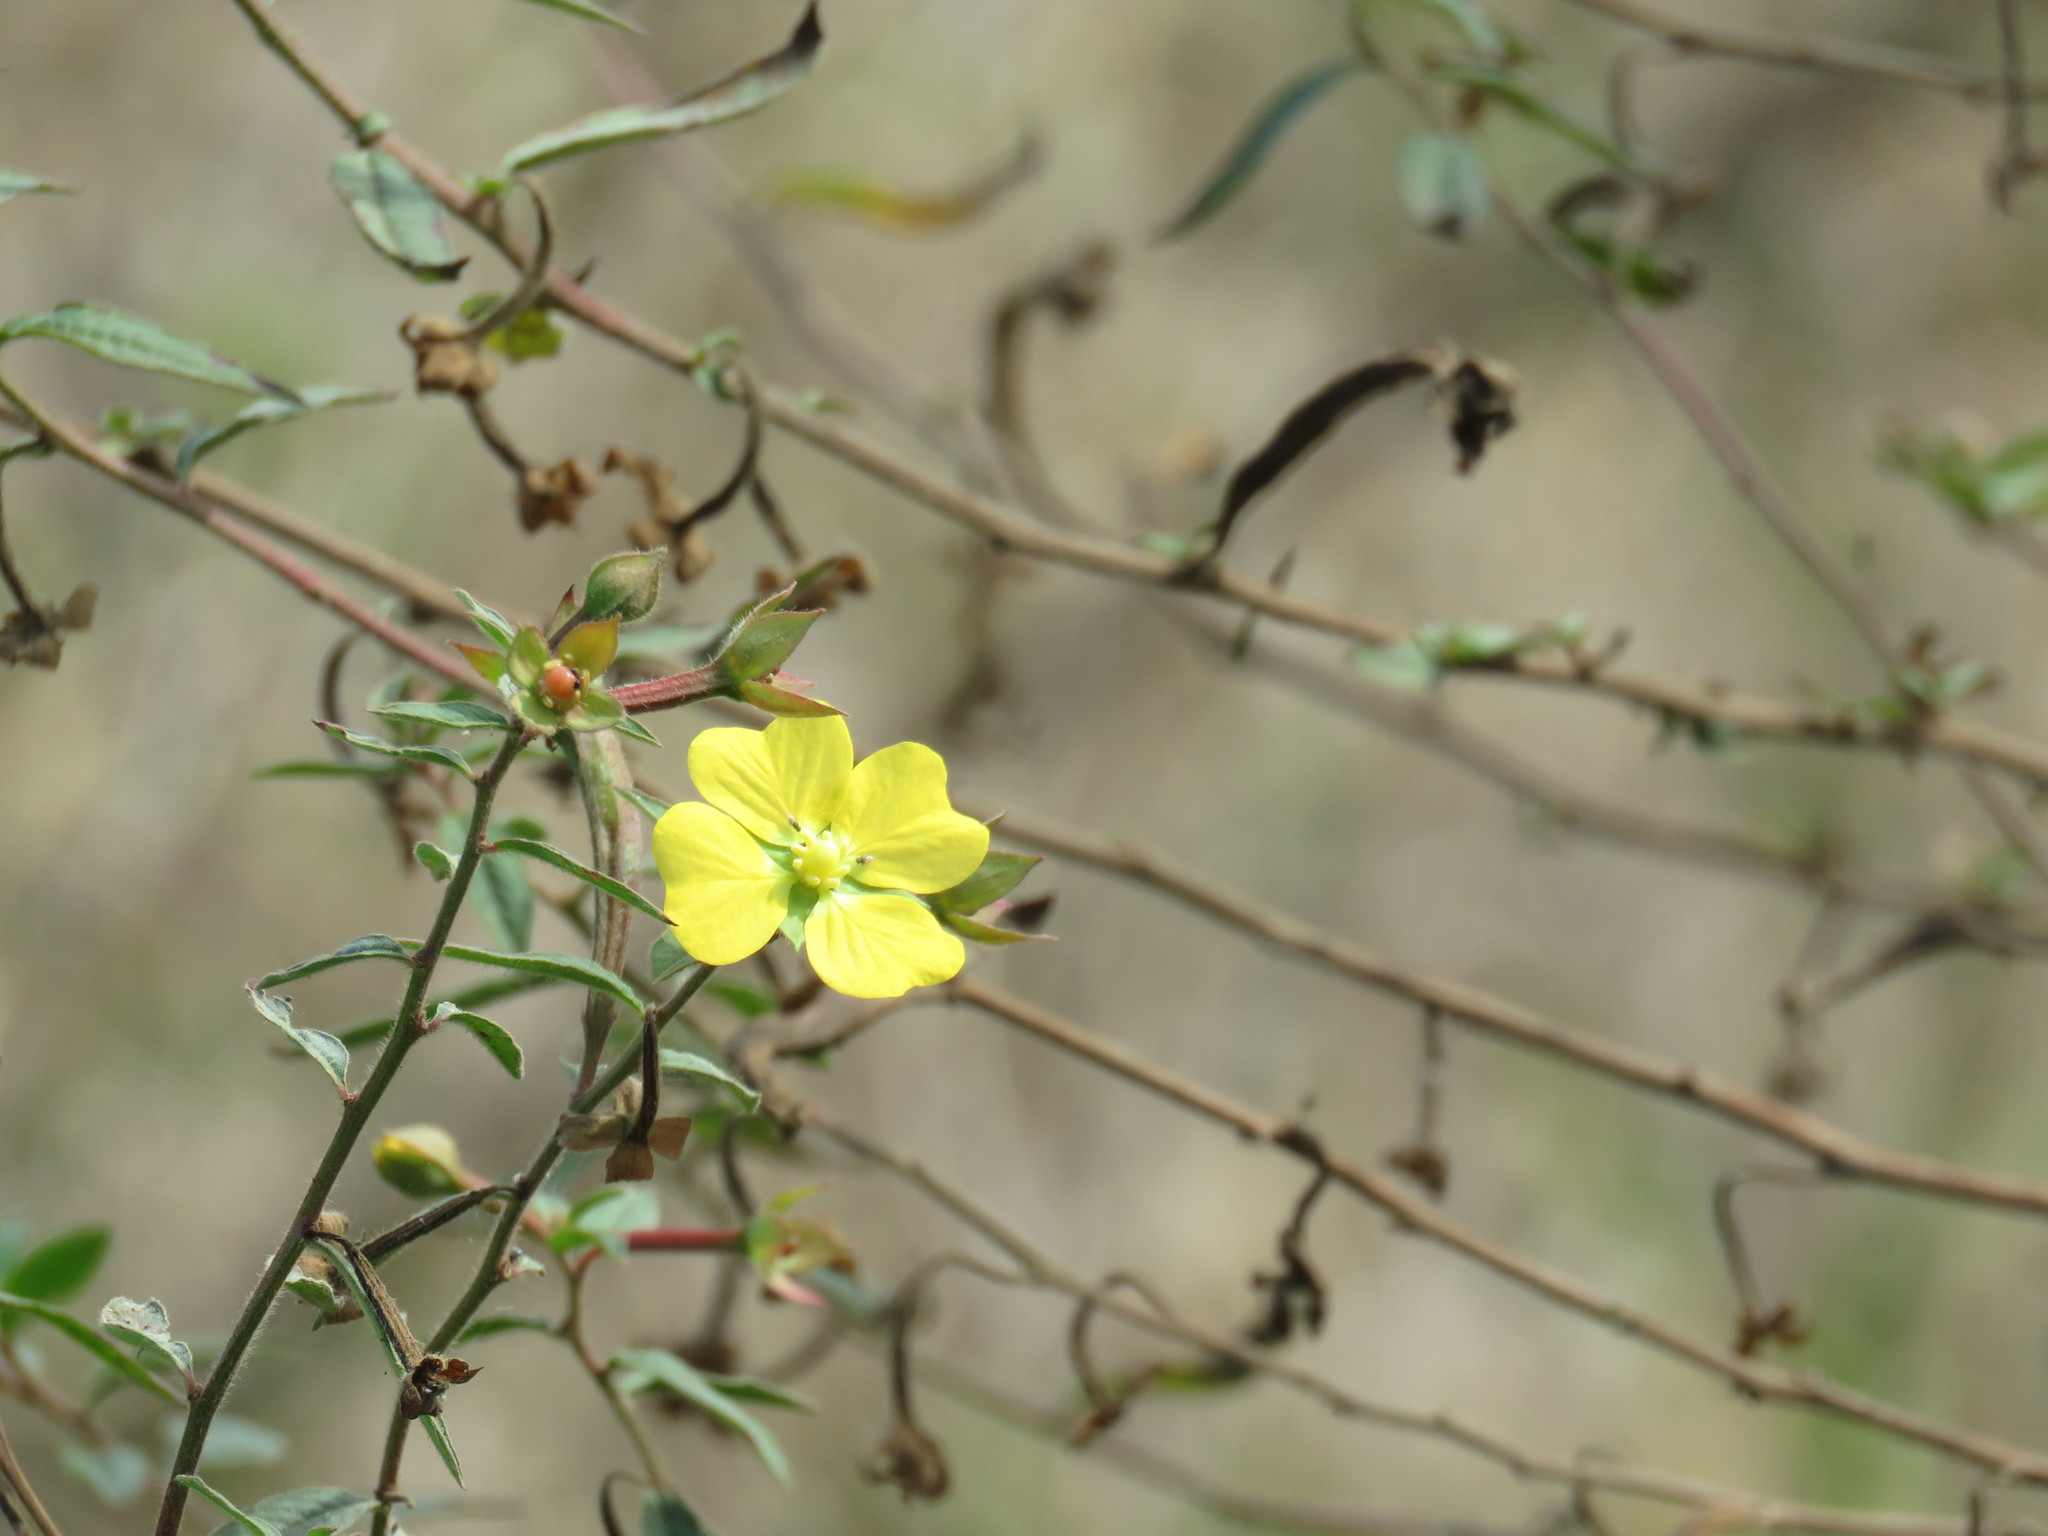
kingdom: Plantae
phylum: Tracheophyta
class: Magnoliopsida
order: Myrtales
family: Onagraceae
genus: Ludwigia
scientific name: Ludwigia octovalvis
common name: Water-primrose
